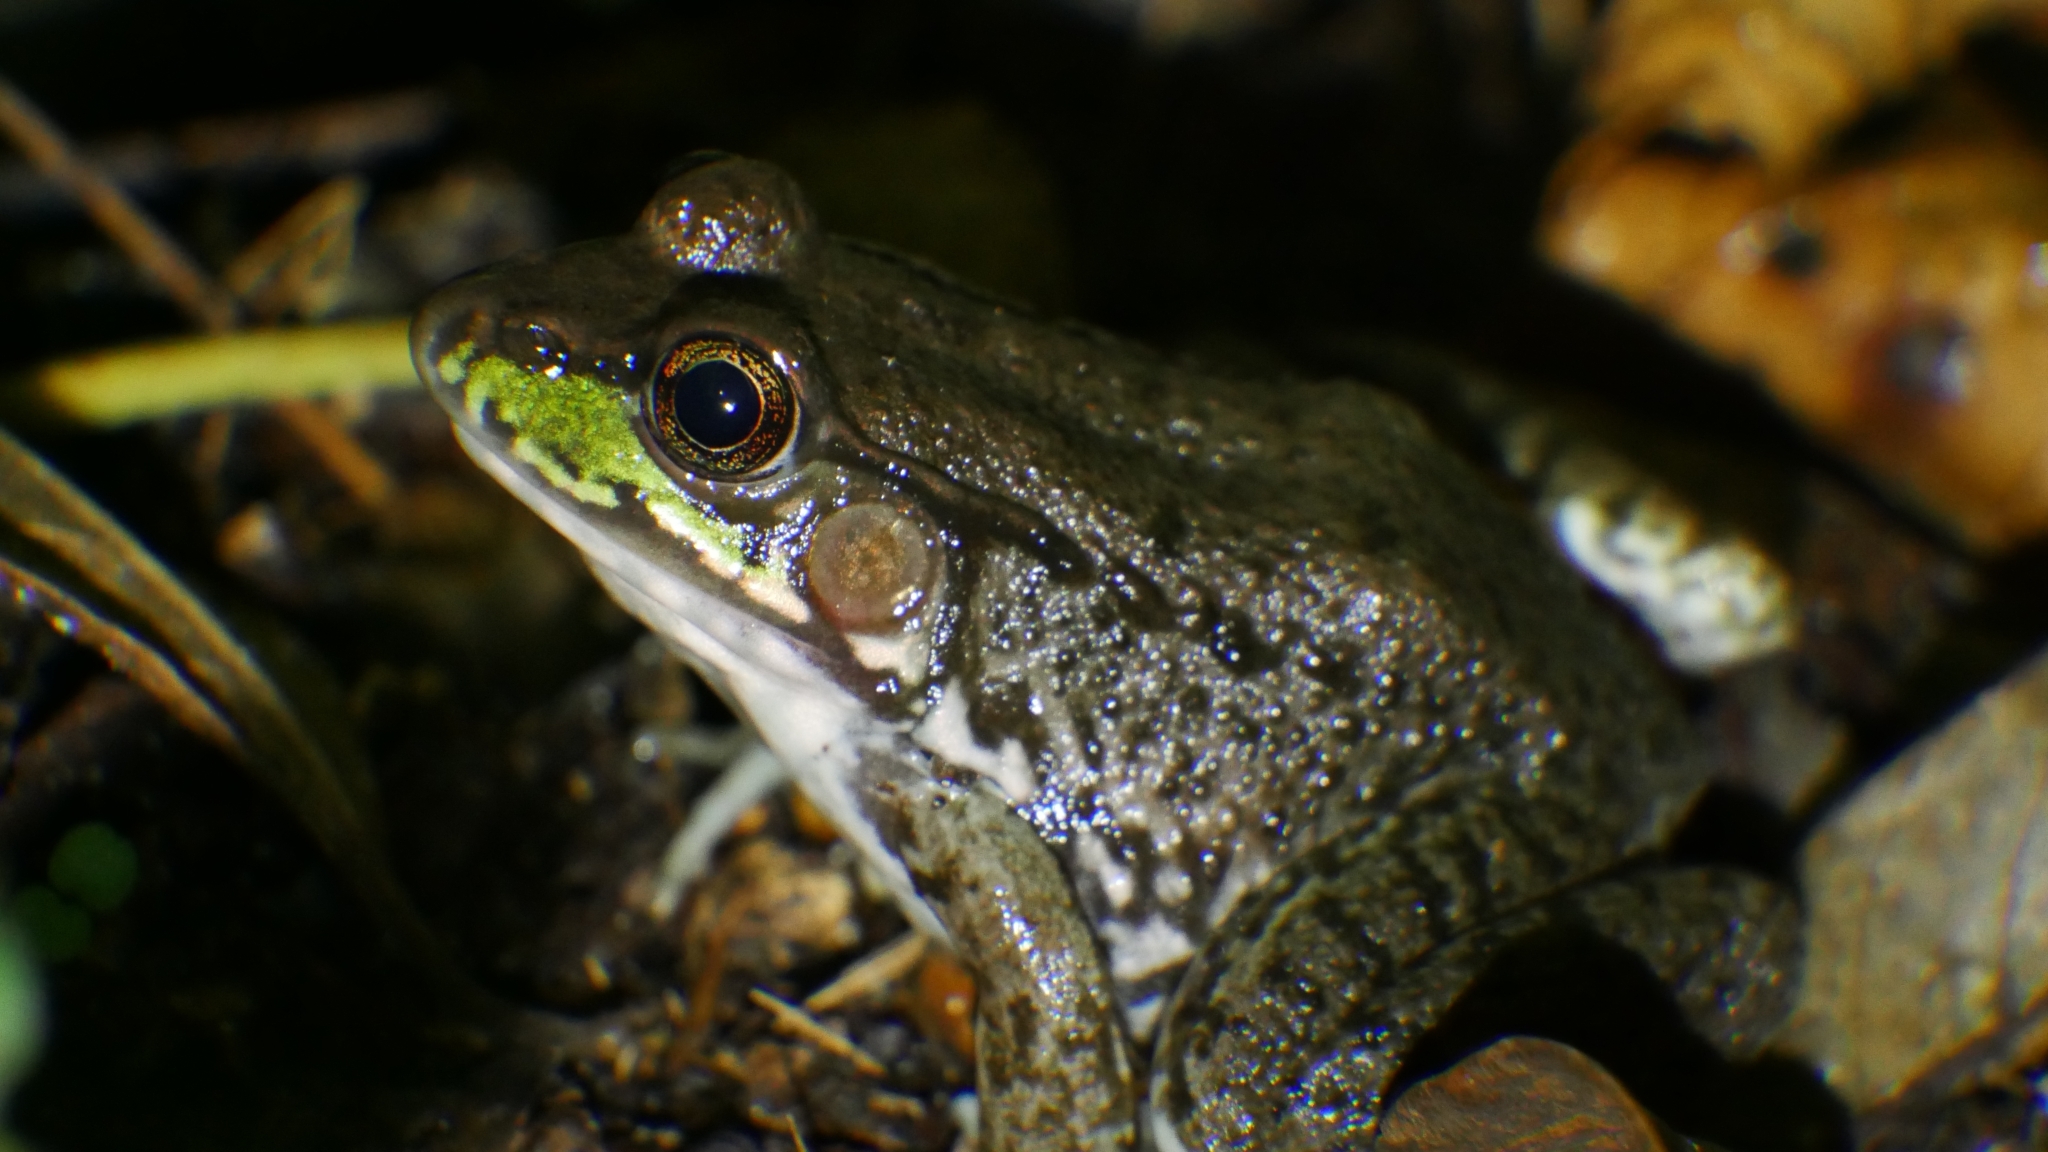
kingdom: Animalia
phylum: Chordata
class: Amphibia
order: Anura
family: Ranidae
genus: Lithobates
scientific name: Lithobates clamitans
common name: Green frog
